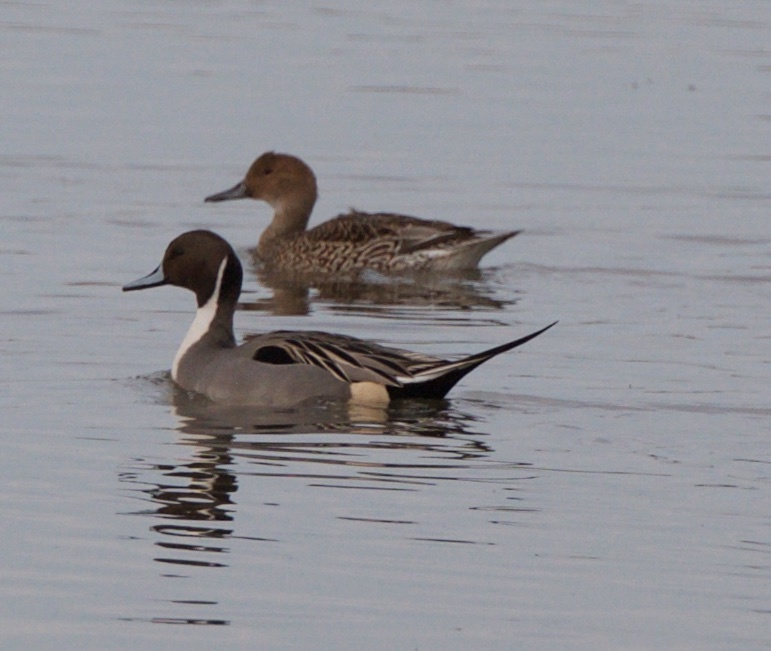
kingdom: Animalia
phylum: Chordata
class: Aves
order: Anseriformes
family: Anatidae
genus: Anas
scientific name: Anas acuta
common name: Northern pintail
